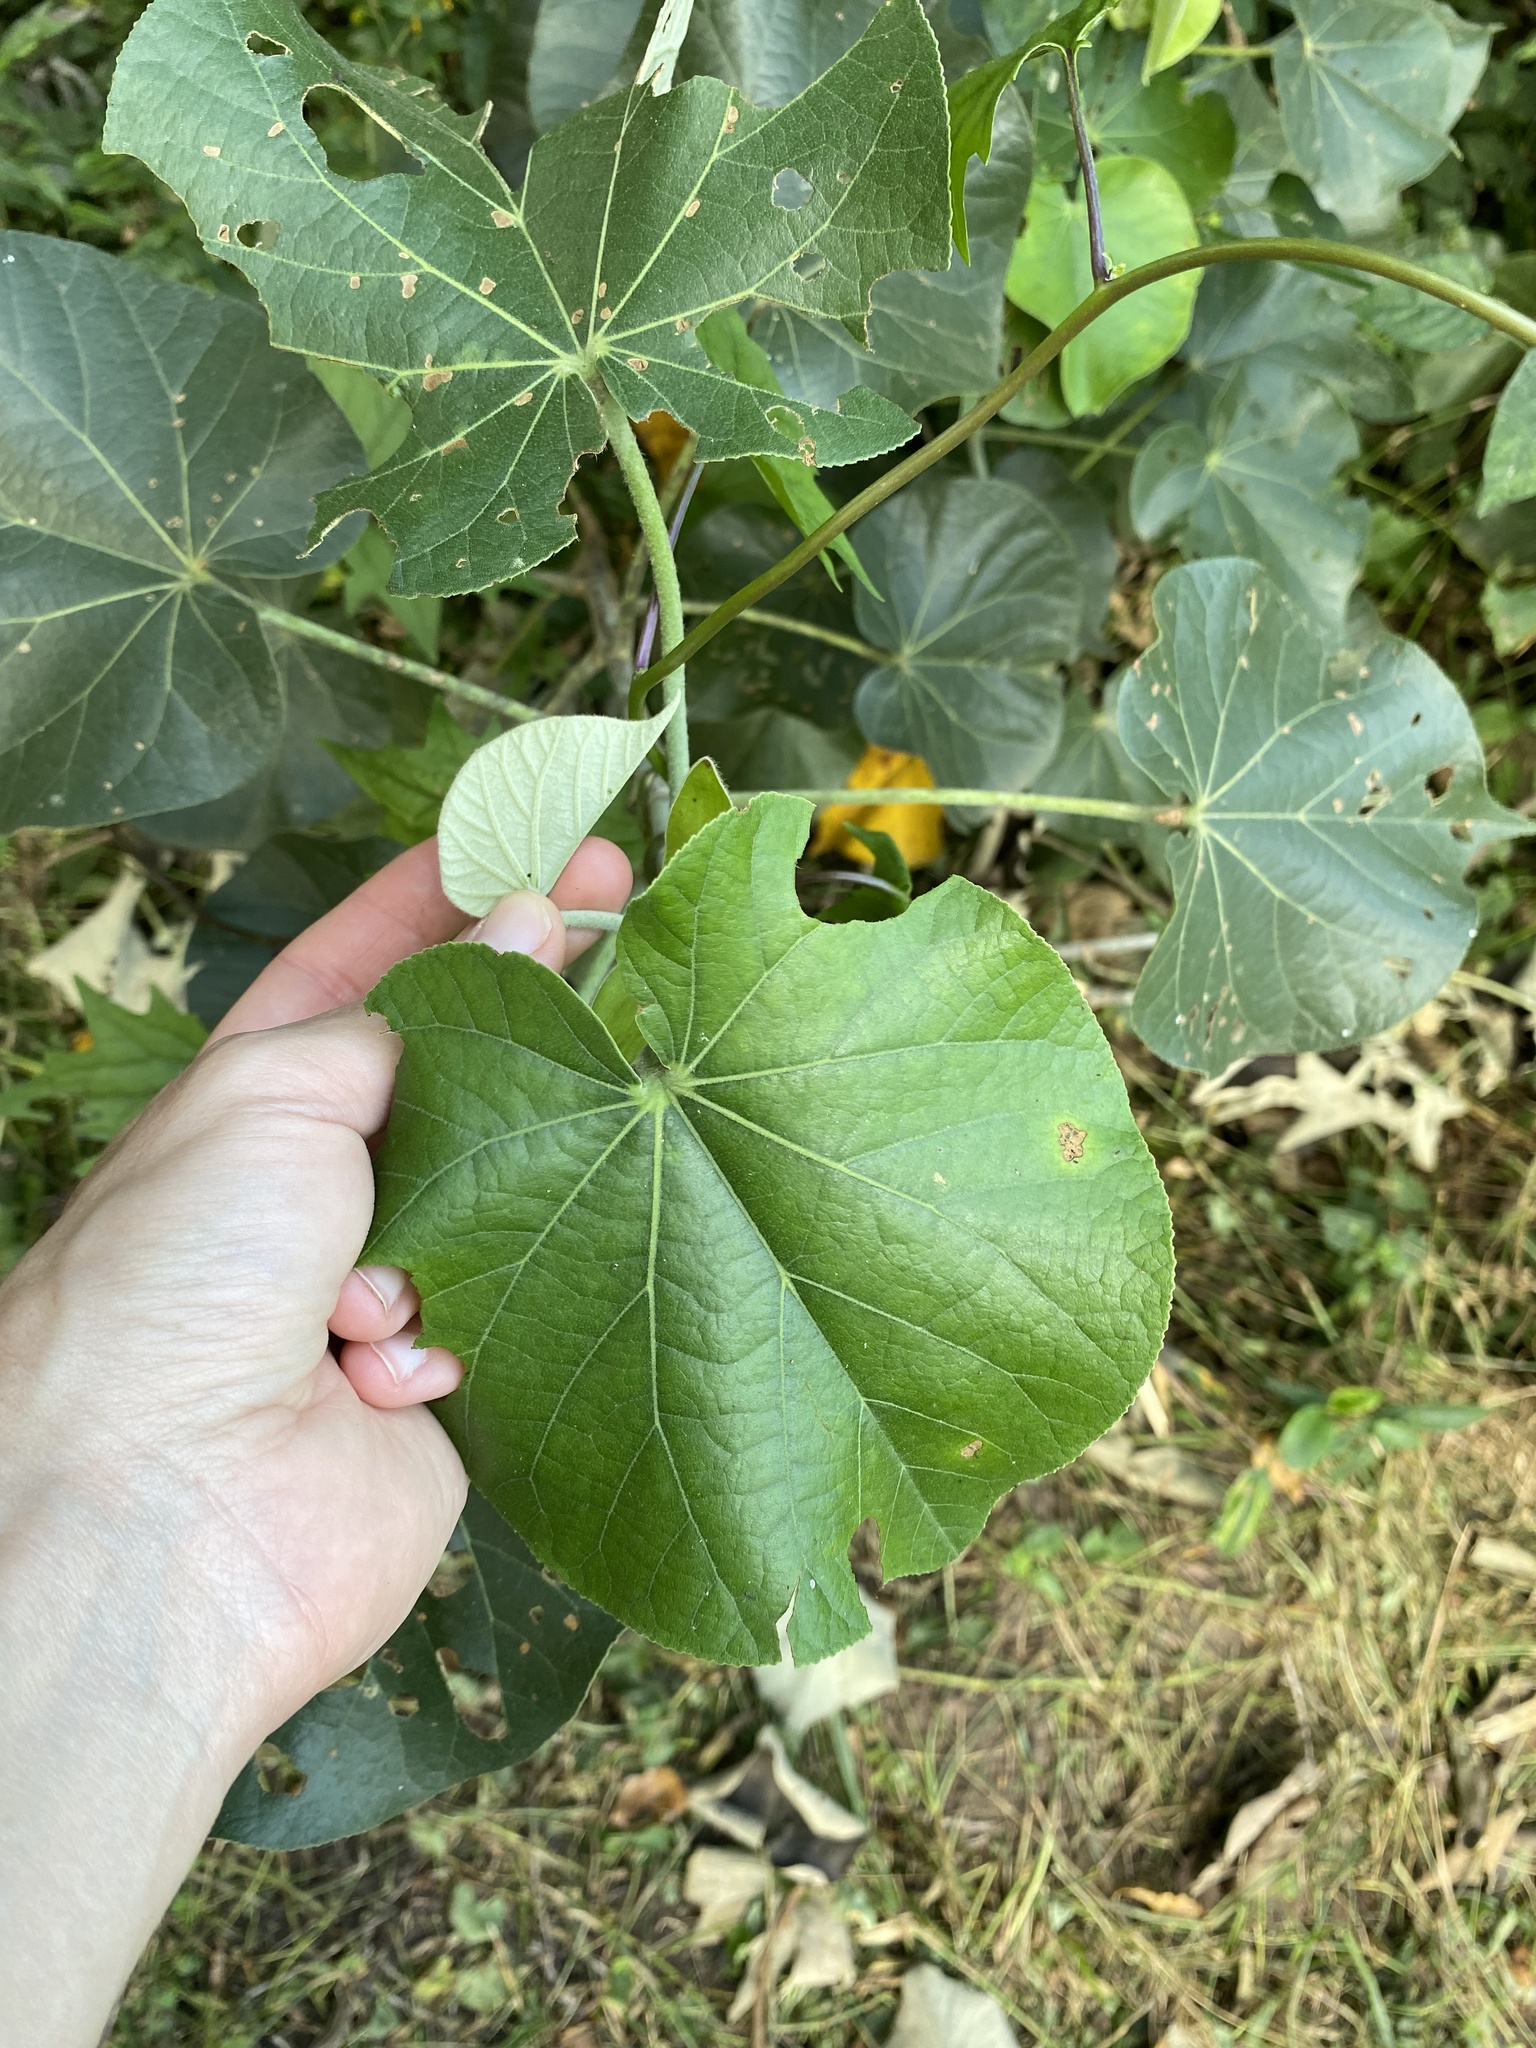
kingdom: Plantae
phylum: Tracheophyta
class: Magnoliopsida
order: Malvales
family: Malvaceae
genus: Talipariti
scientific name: Talipariti tiliaceum
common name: Sea hibiscus
